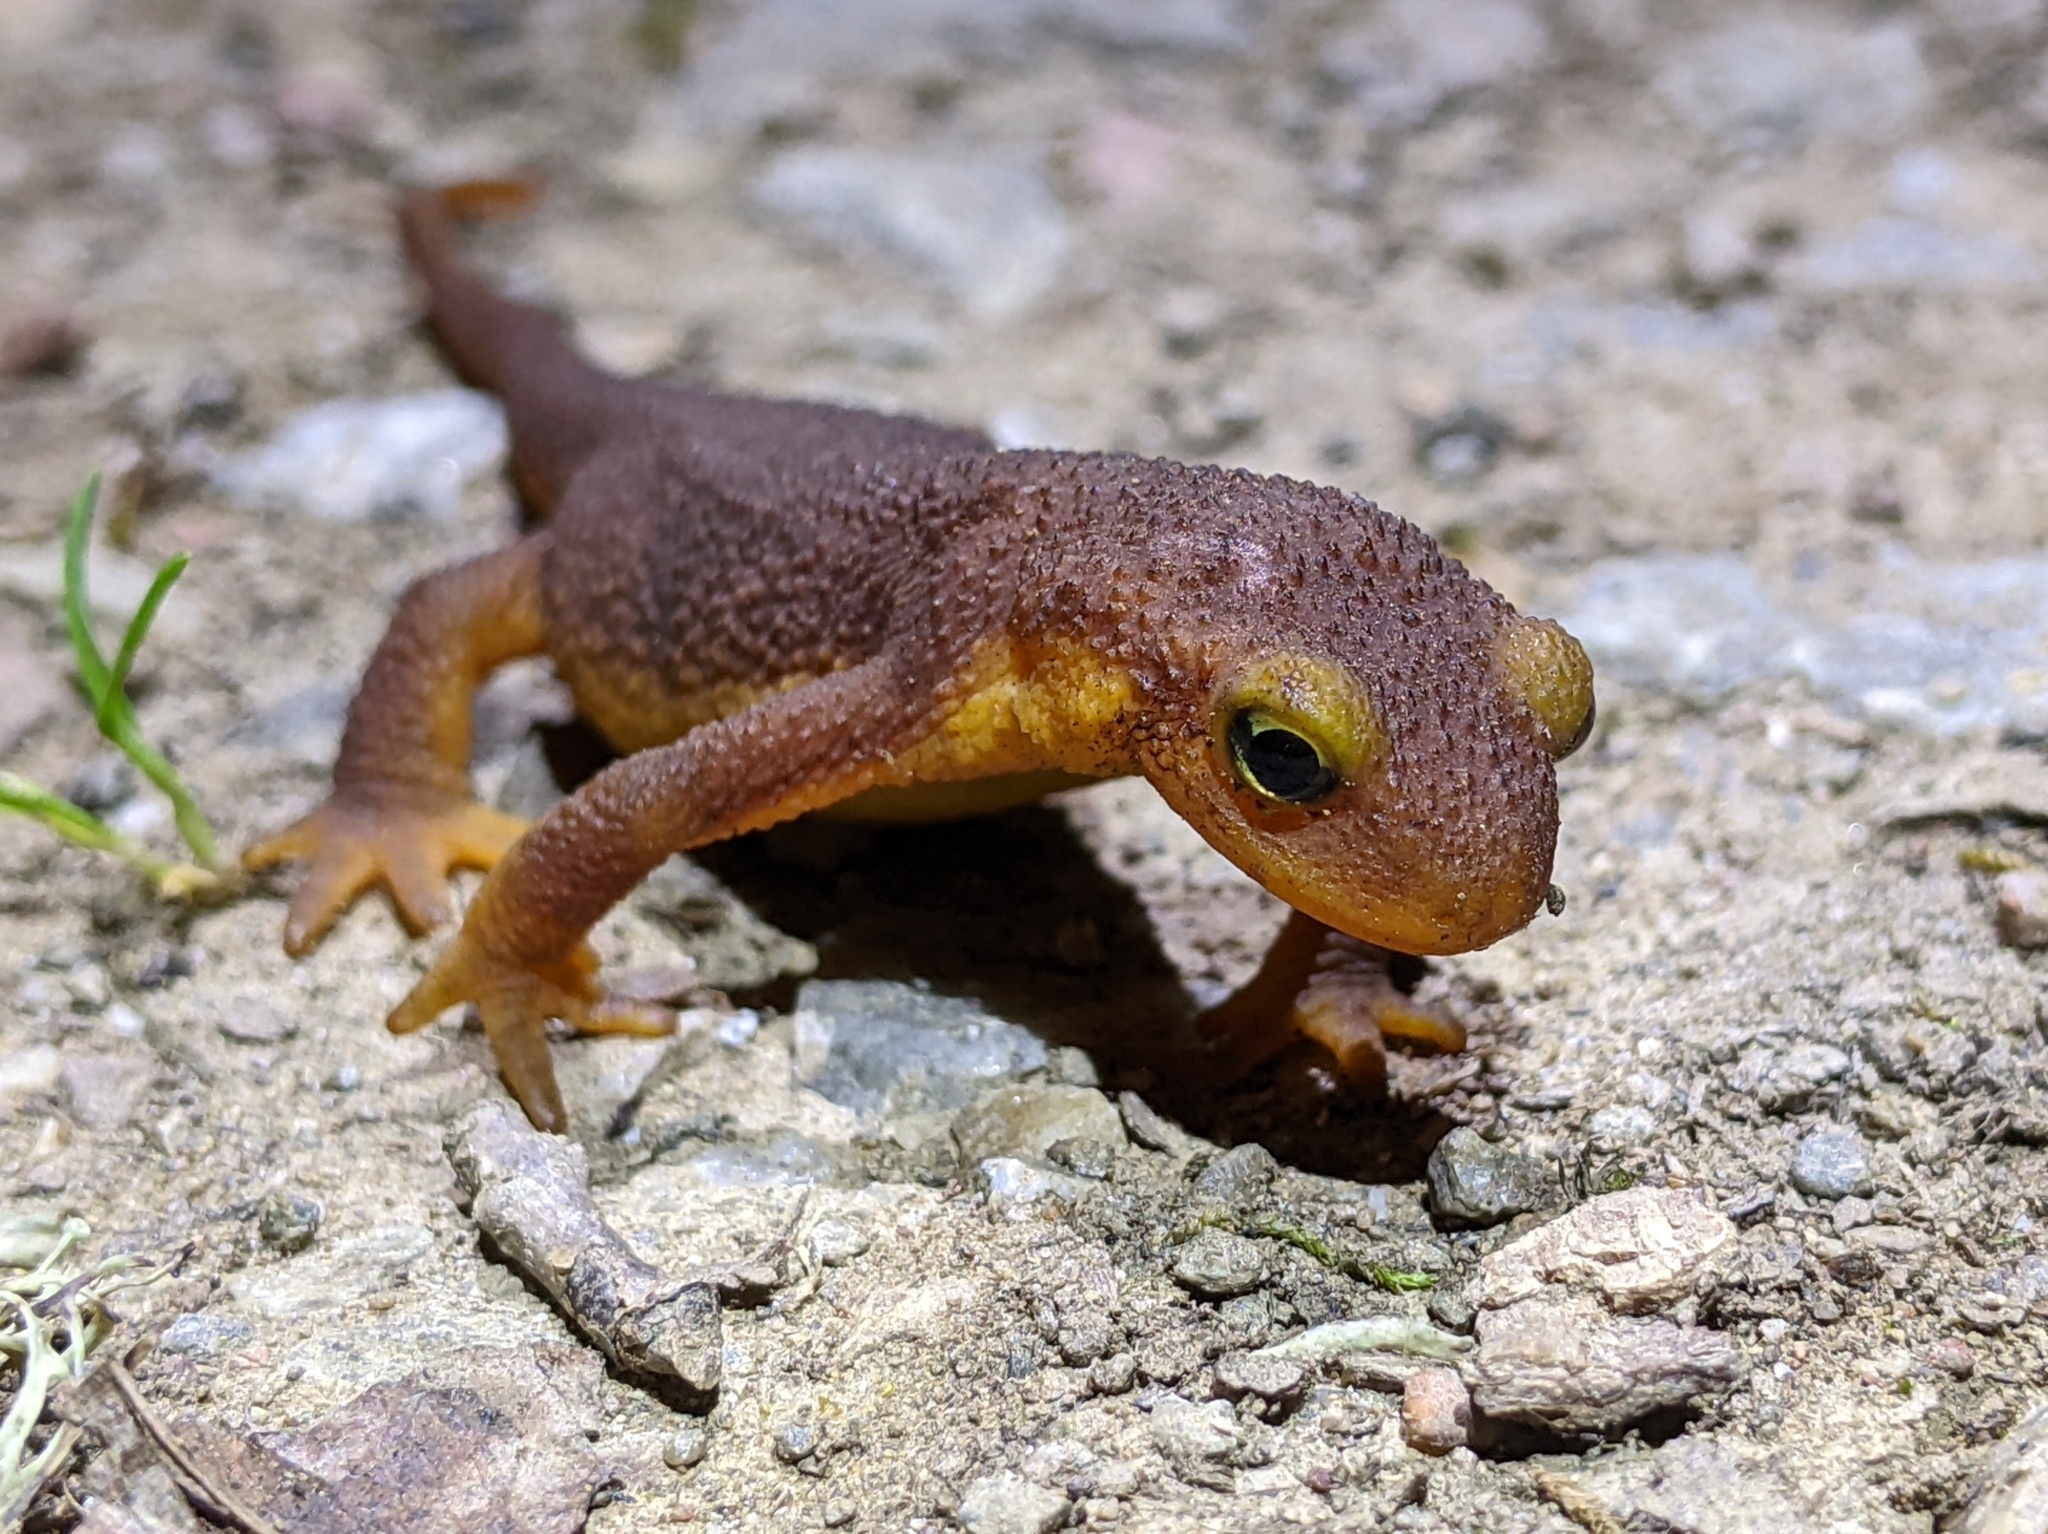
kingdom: Animalia
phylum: Chordata
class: Amphibia
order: Caudata
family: Salamandridae
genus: Taricha
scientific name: Taricha torosa
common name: California newt
